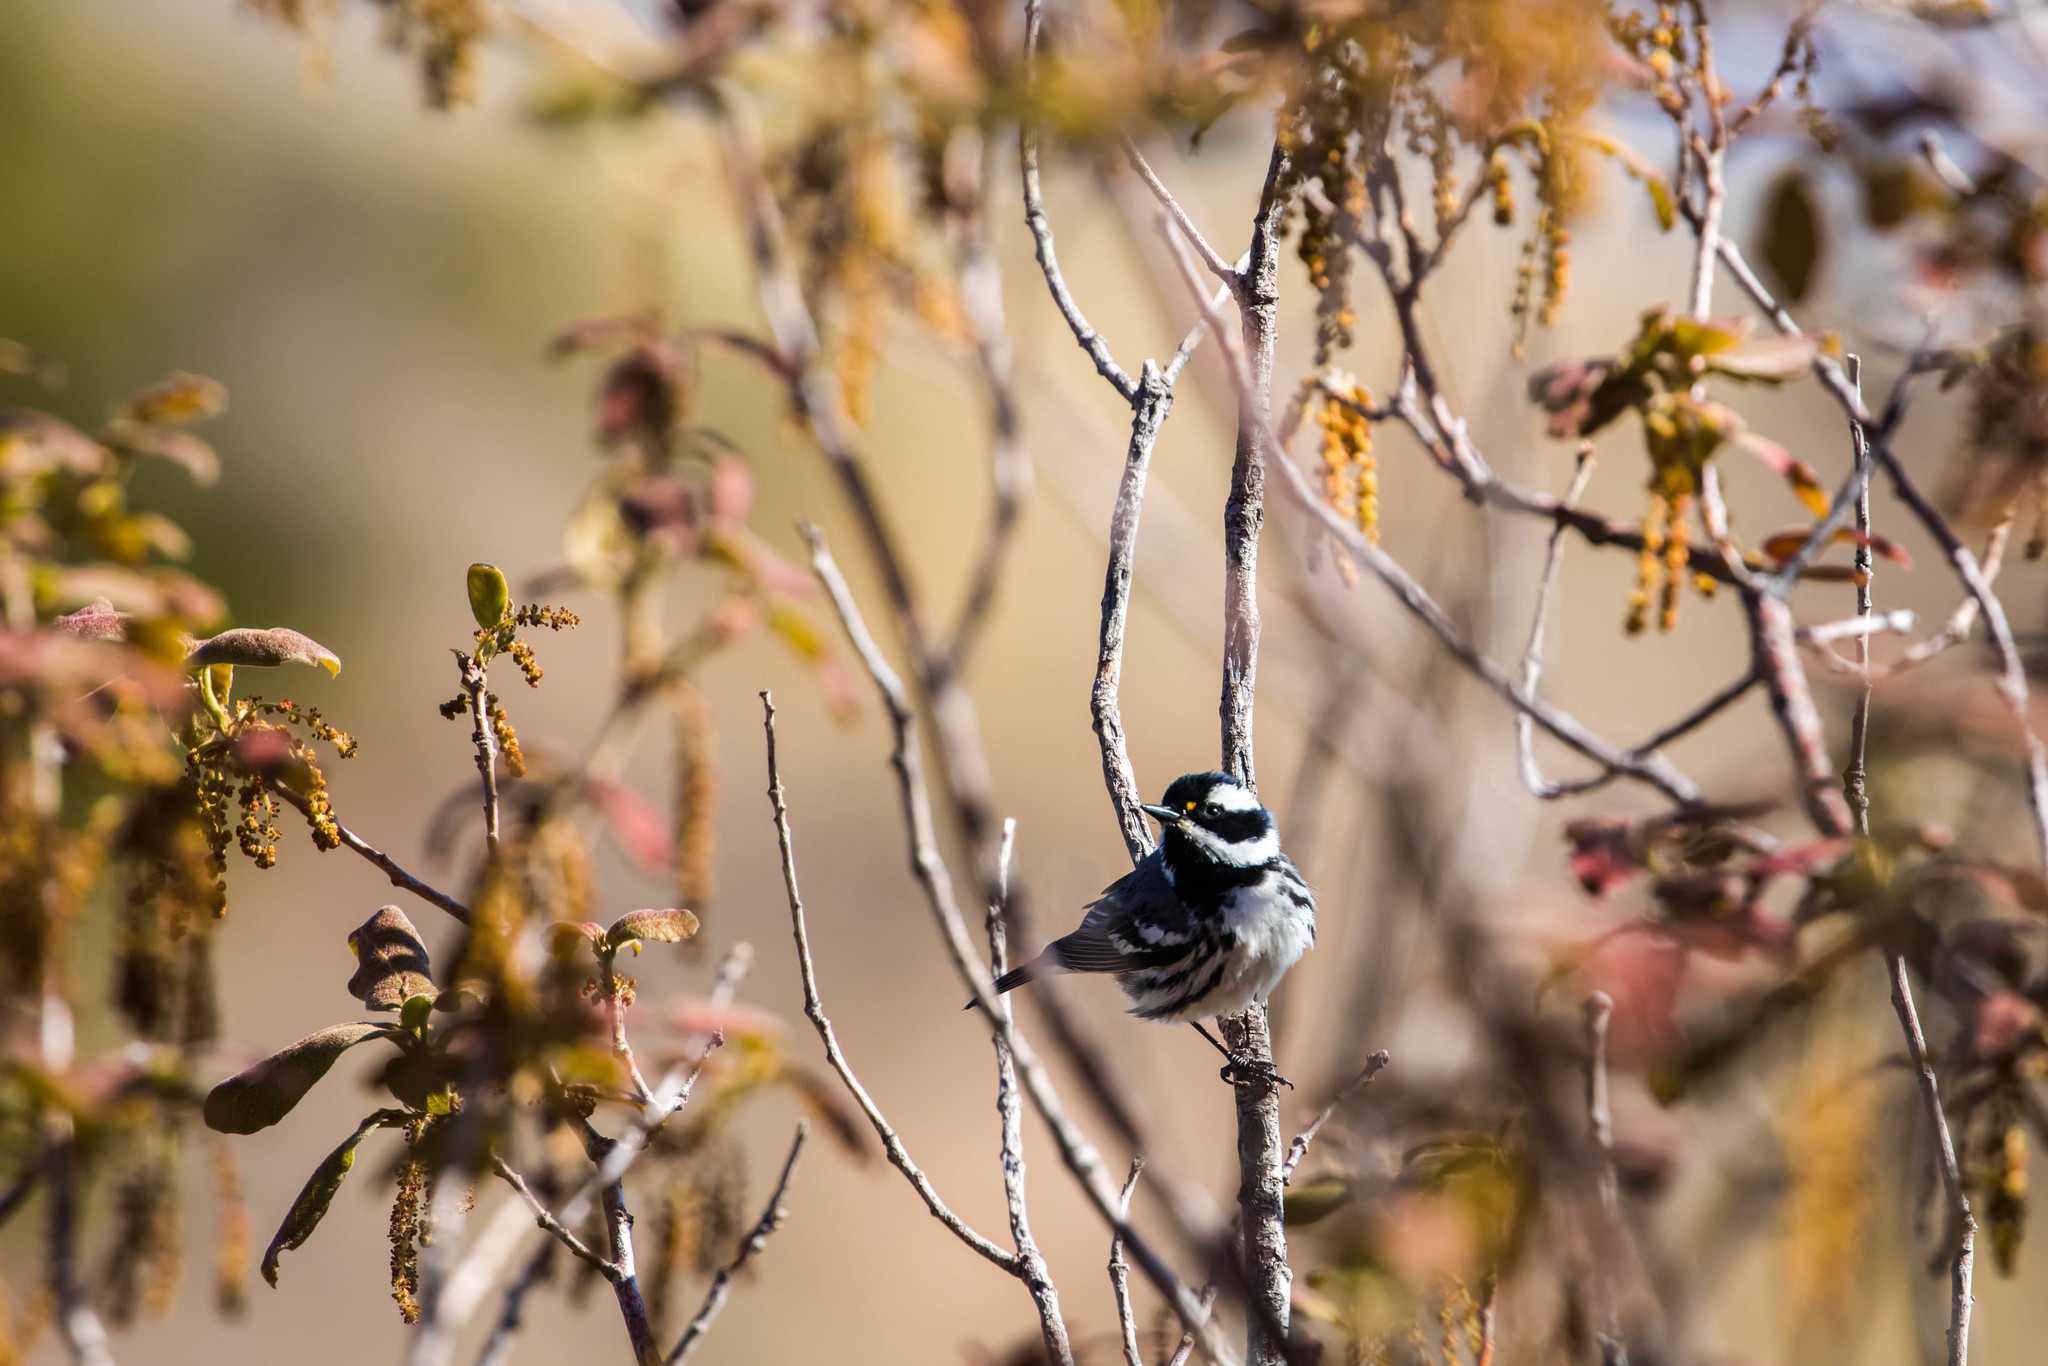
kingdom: Animalia
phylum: Chordata
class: Aves
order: Passeriformes
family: Parulidae
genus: Setophaga
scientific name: Setophaga nigrescens
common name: Black-throated gray warbler
